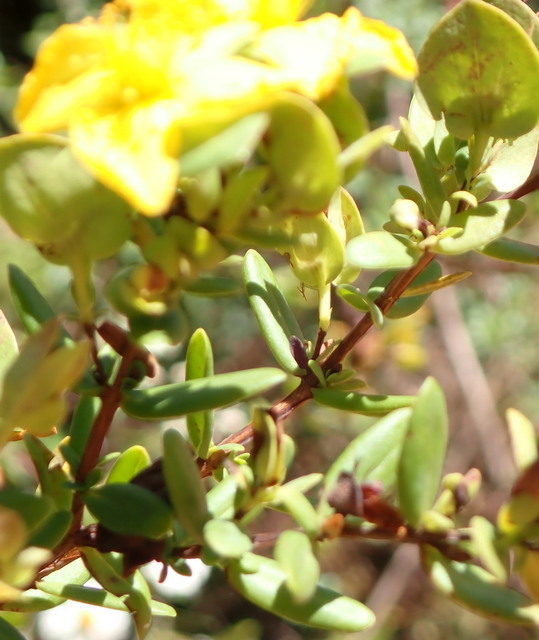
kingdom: Plantae
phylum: Tracheophyta
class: Magnoliopsida
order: Malpighiales
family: Hypericaceae
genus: Hypericum
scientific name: Hypericum crux-andreae
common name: St.-peter's-wort
